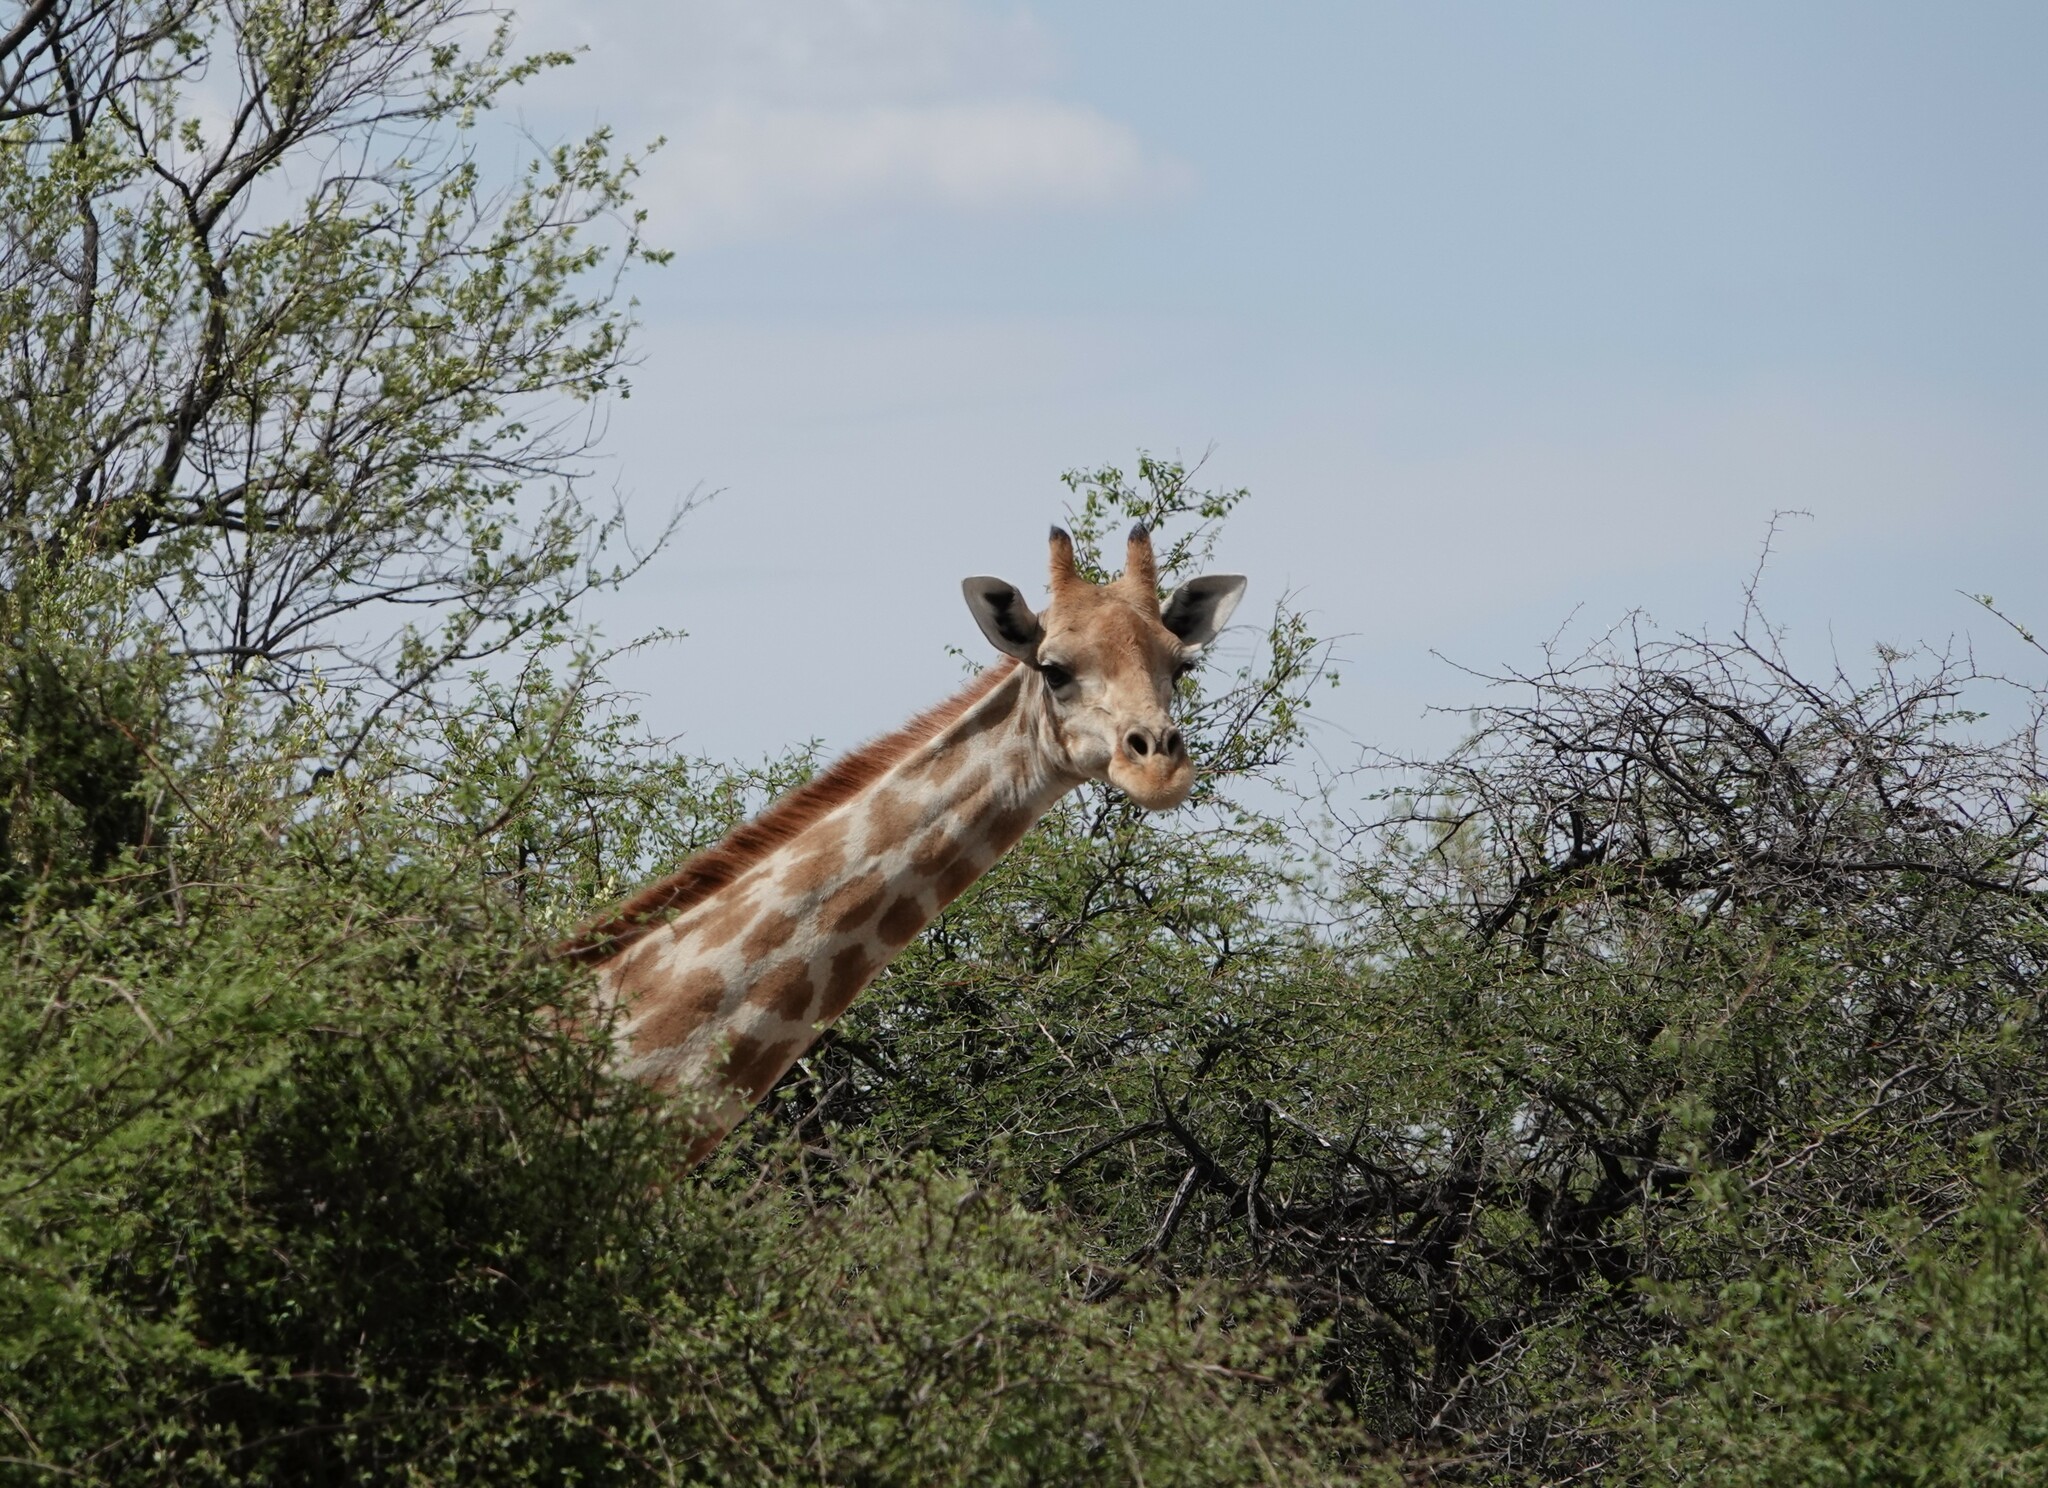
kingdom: Animalia
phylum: Chordata
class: Mammalia
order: Artiodactyla
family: Giraffidae
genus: Giraffa
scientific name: Giraffa giraffa
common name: Southern giraffe
